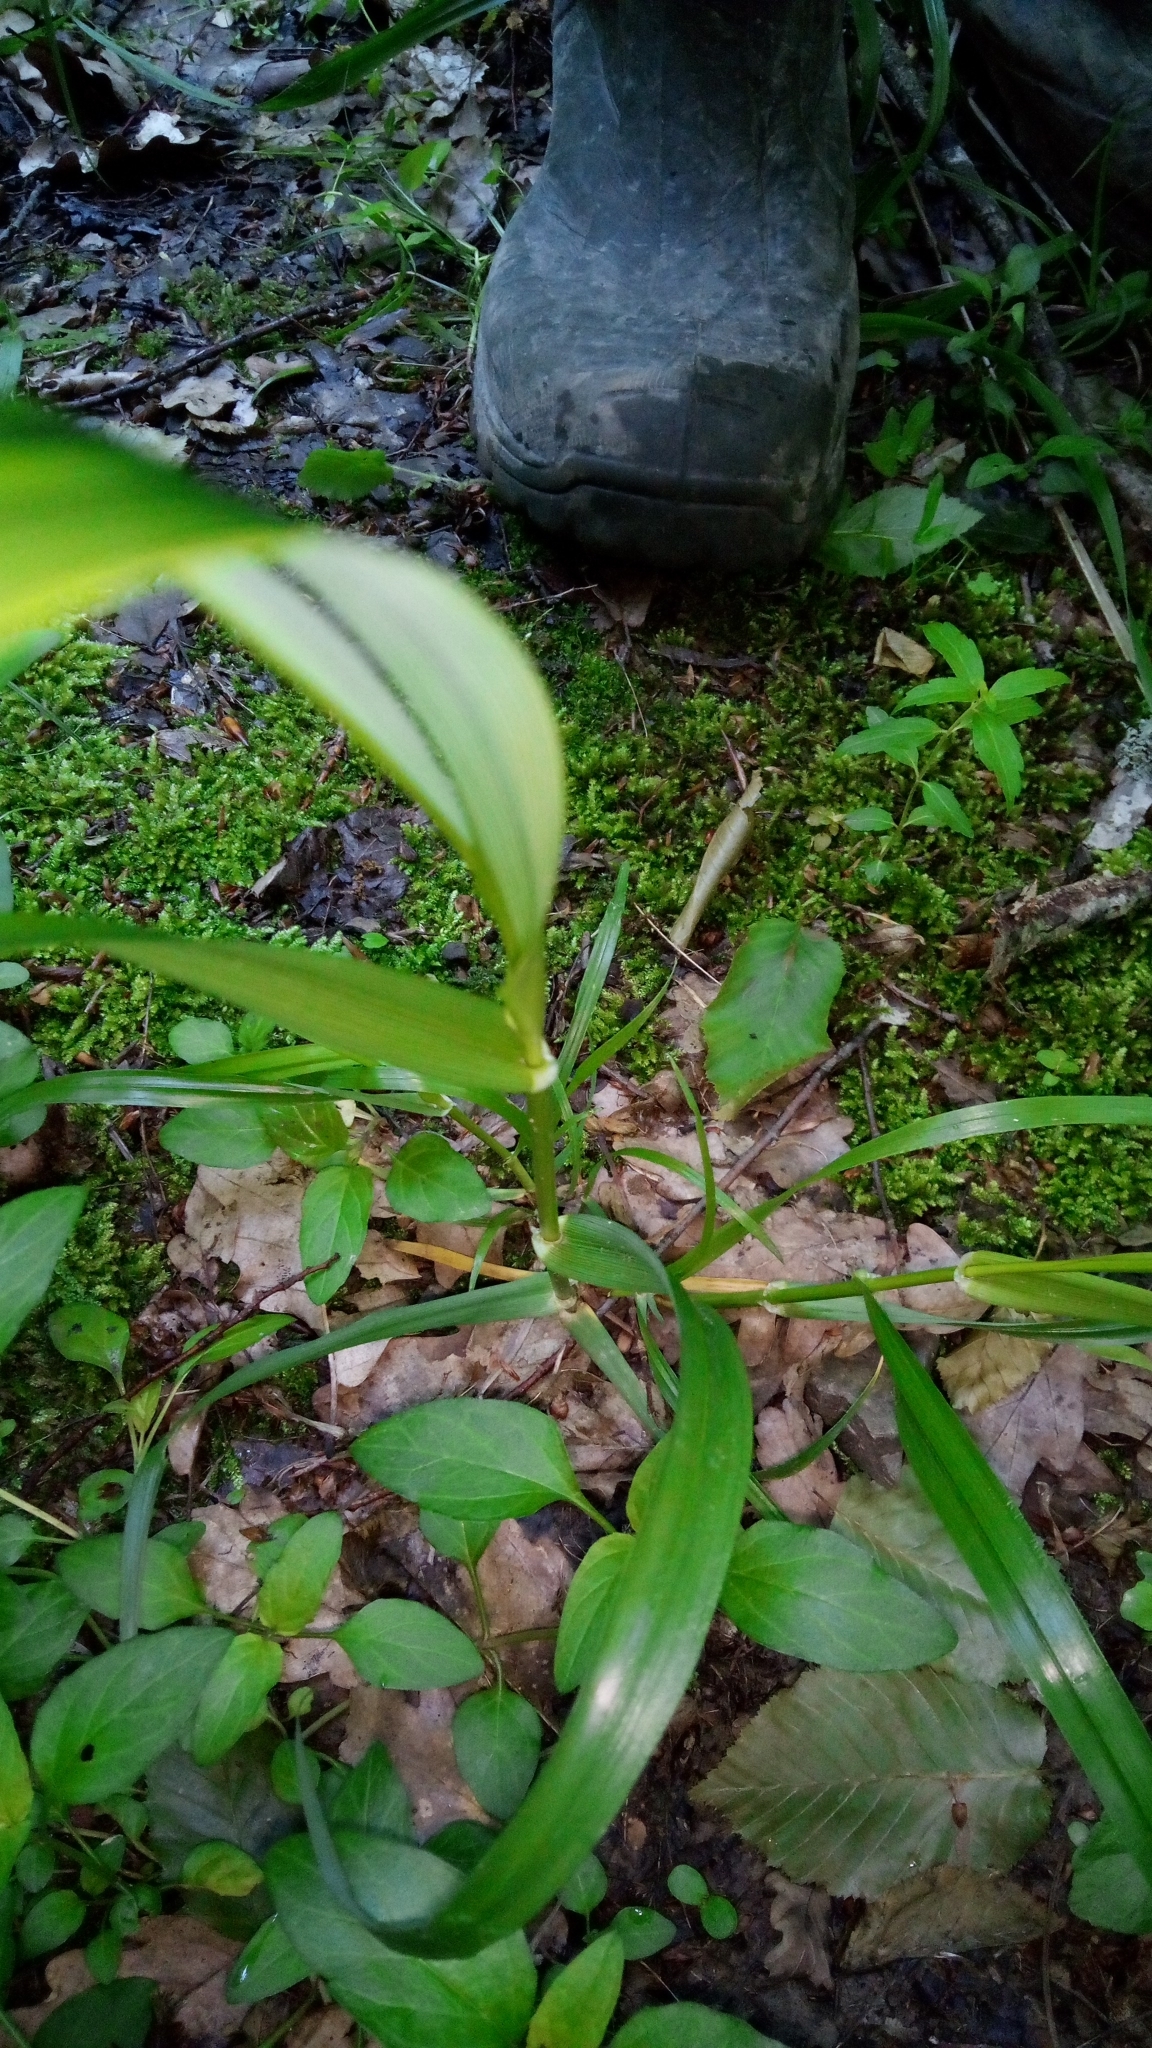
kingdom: Plantae
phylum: Tracheophyta
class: Liliopsida
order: Poales
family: Poaceae
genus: Lolium
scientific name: Lolium giganteum
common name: Giant fescue
